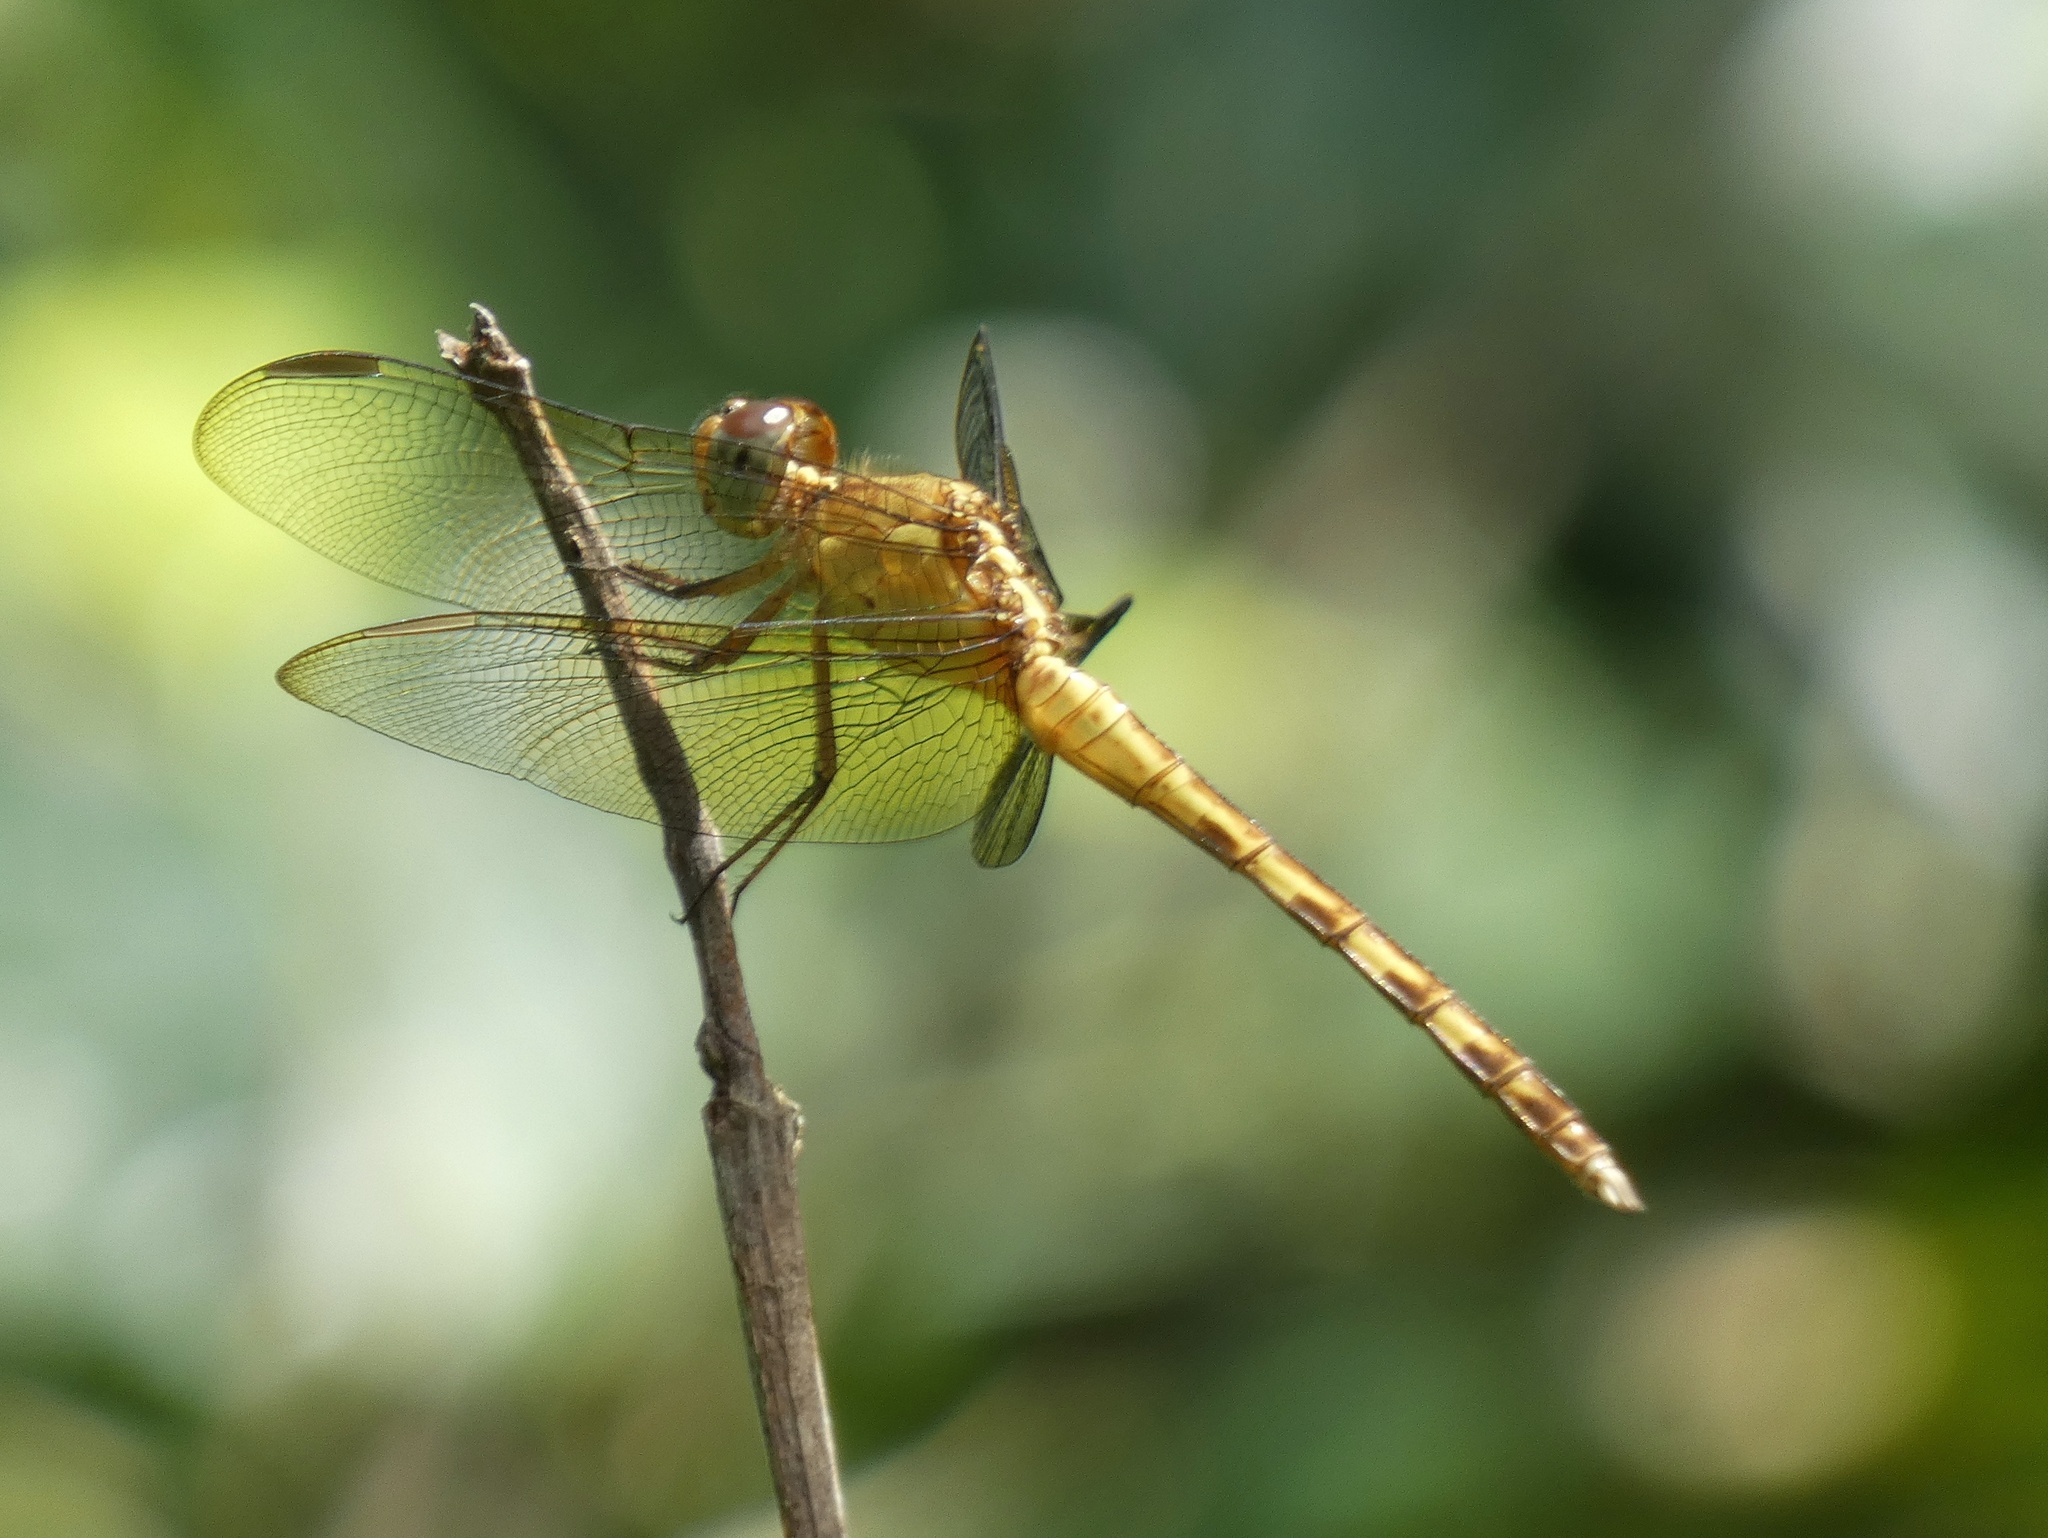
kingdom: Animalia
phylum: Arthropoda
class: Insecta
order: Odonata
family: Libellulidae
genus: Erythrodiplax
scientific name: Erythrodiplax funerea
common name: Black-winged dragonlet
